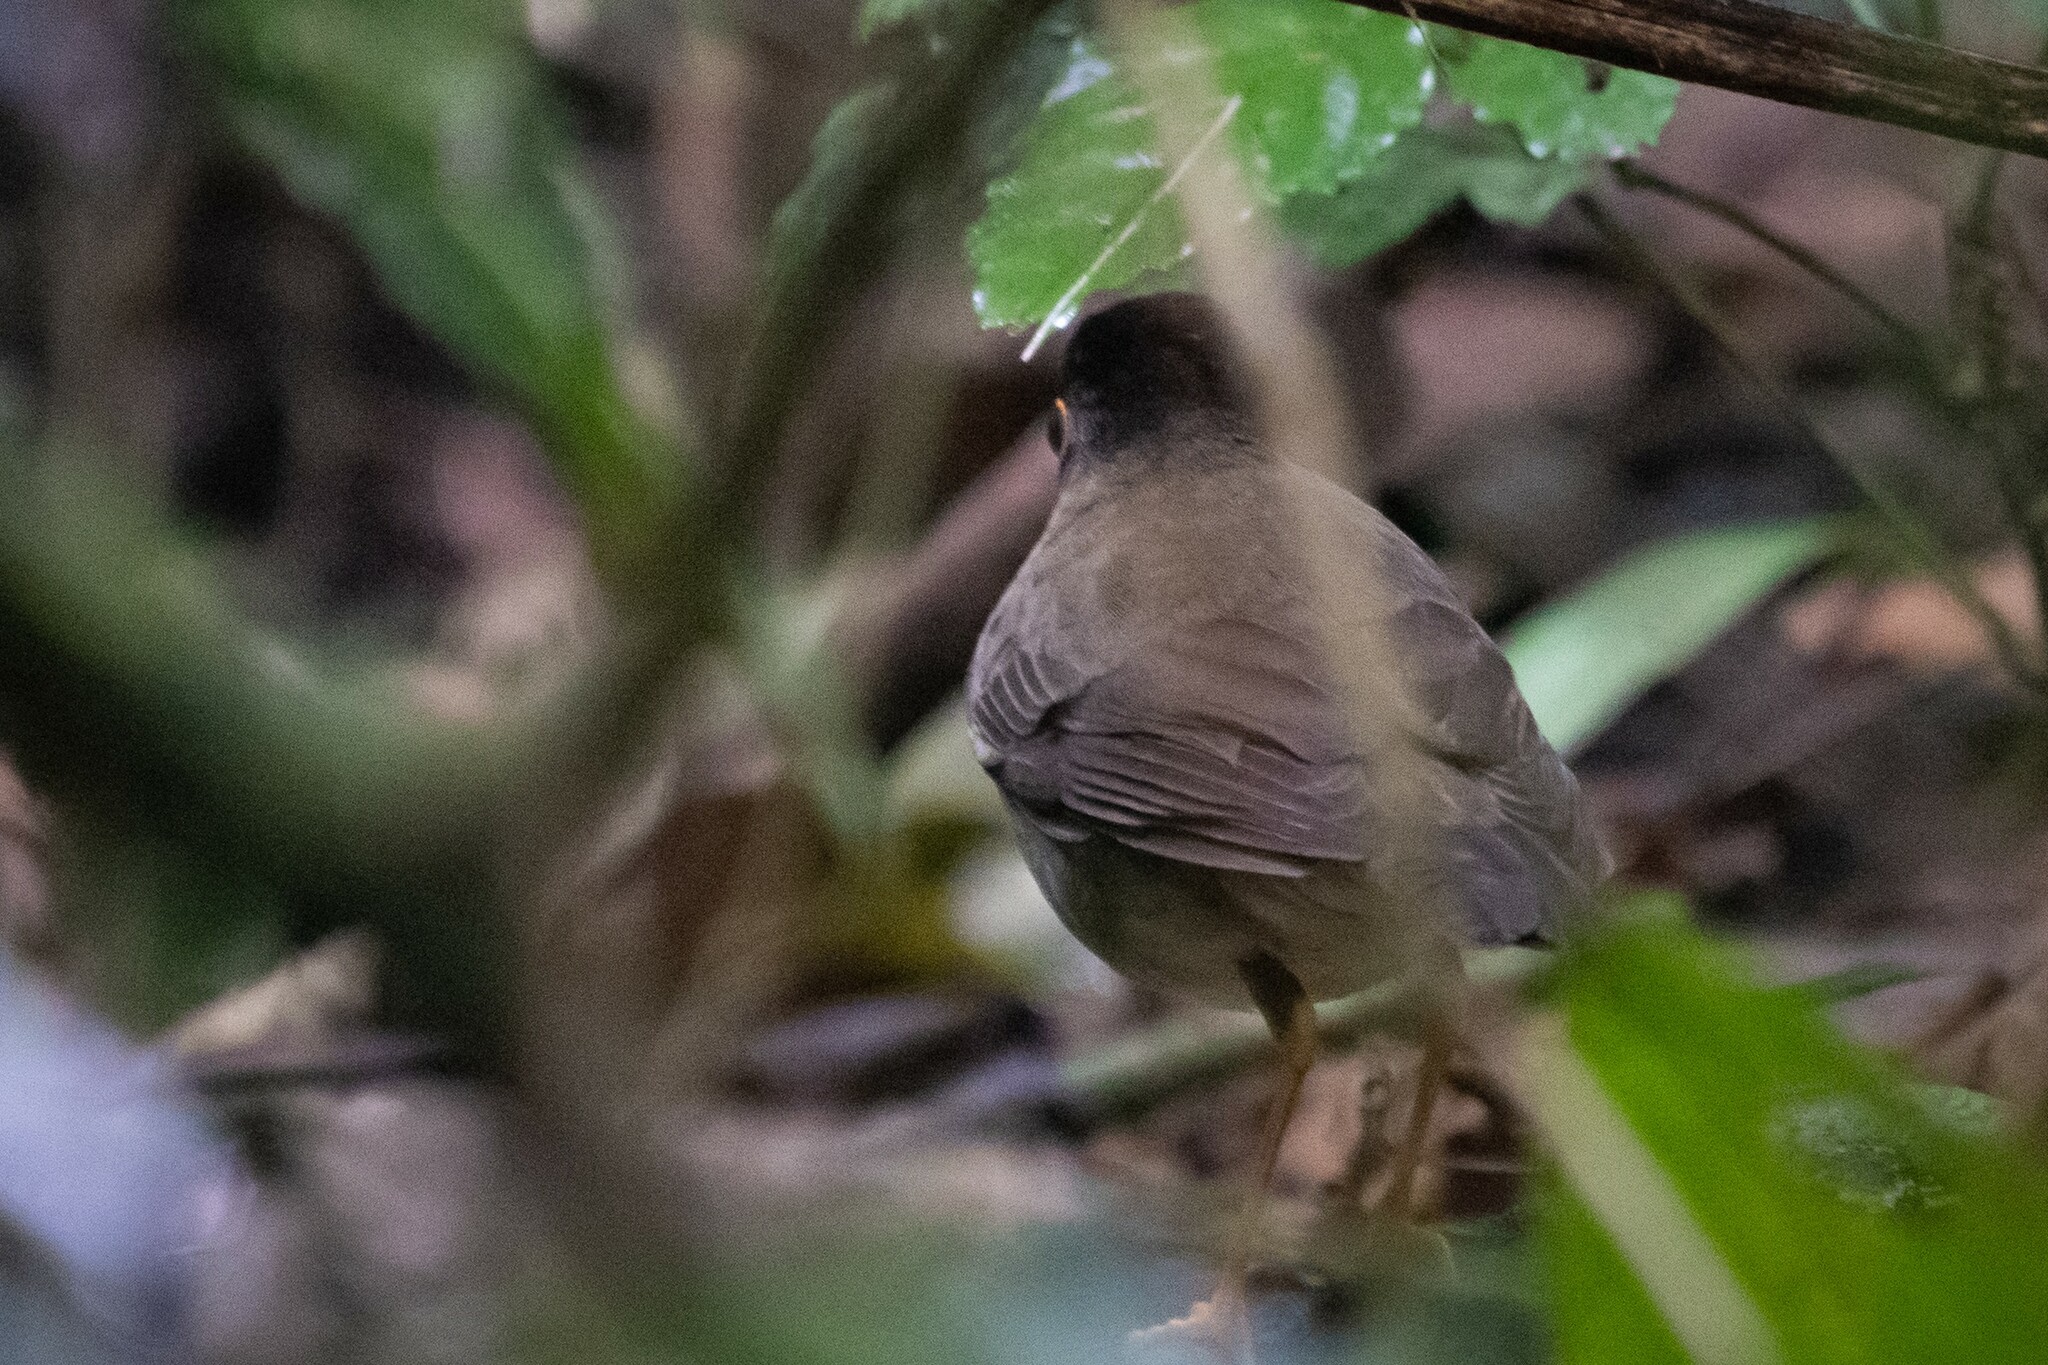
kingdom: Animalia
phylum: Chordata
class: Aves
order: Passeriformes
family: Turdidae
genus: Catharus
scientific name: Catharus mexicanus
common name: Black-headed nightingale-thrush
